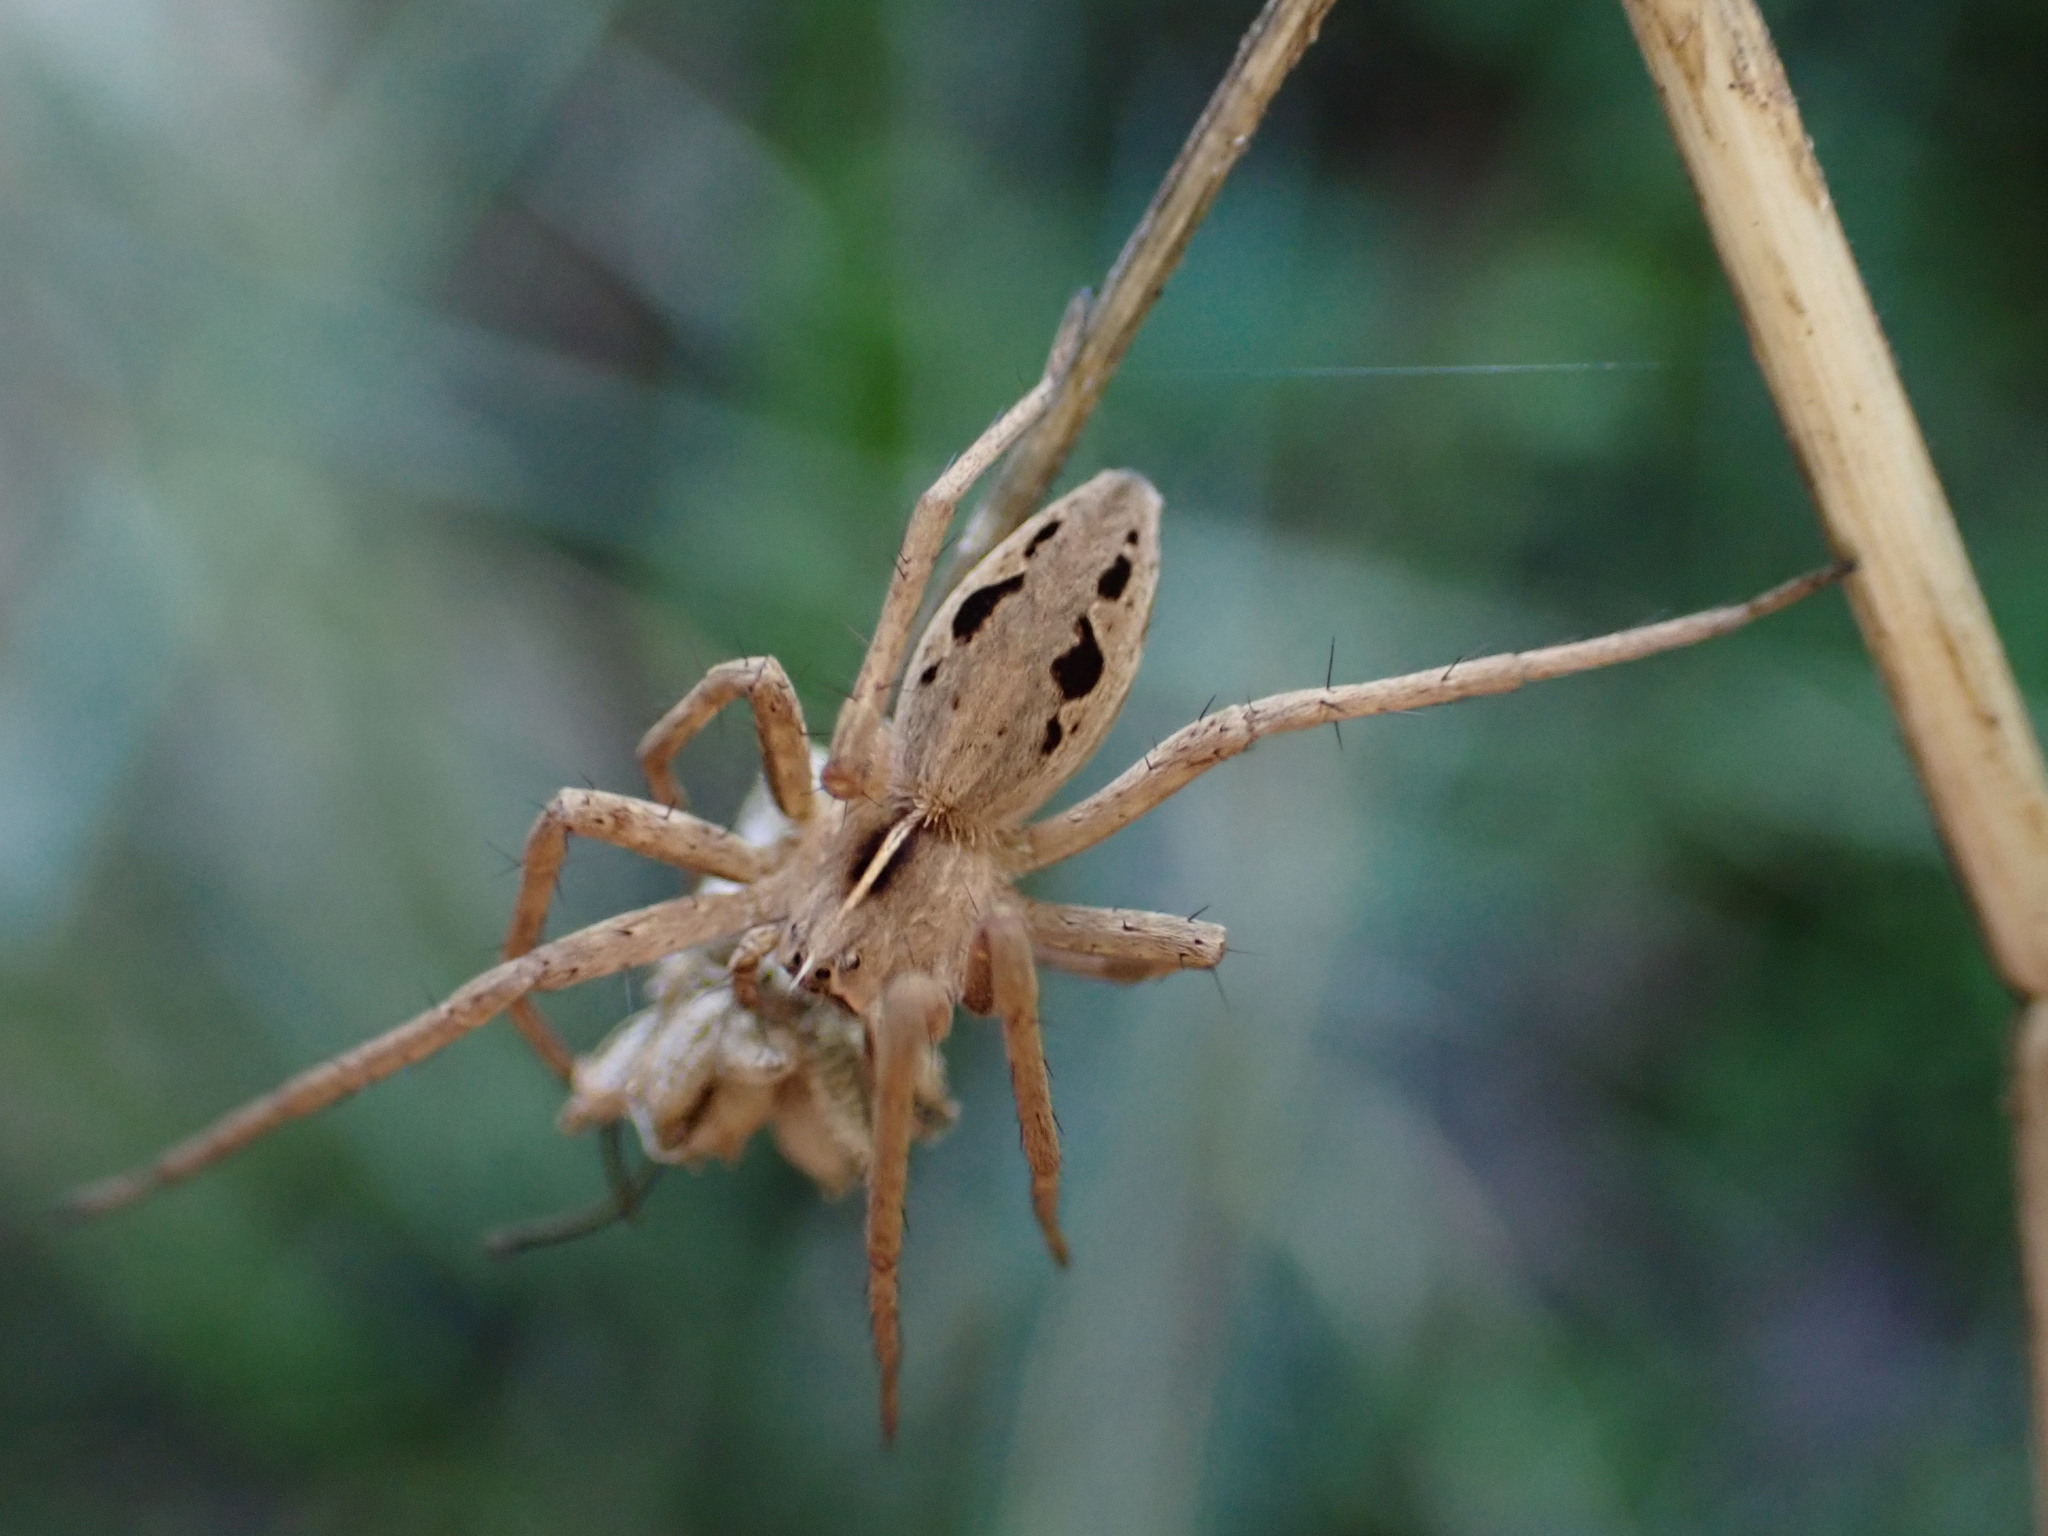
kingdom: Animalia
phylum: Arthropoda
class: Arachnida
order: Araneae
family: Pisauridae
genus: Pisaura
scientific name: Pisaura
